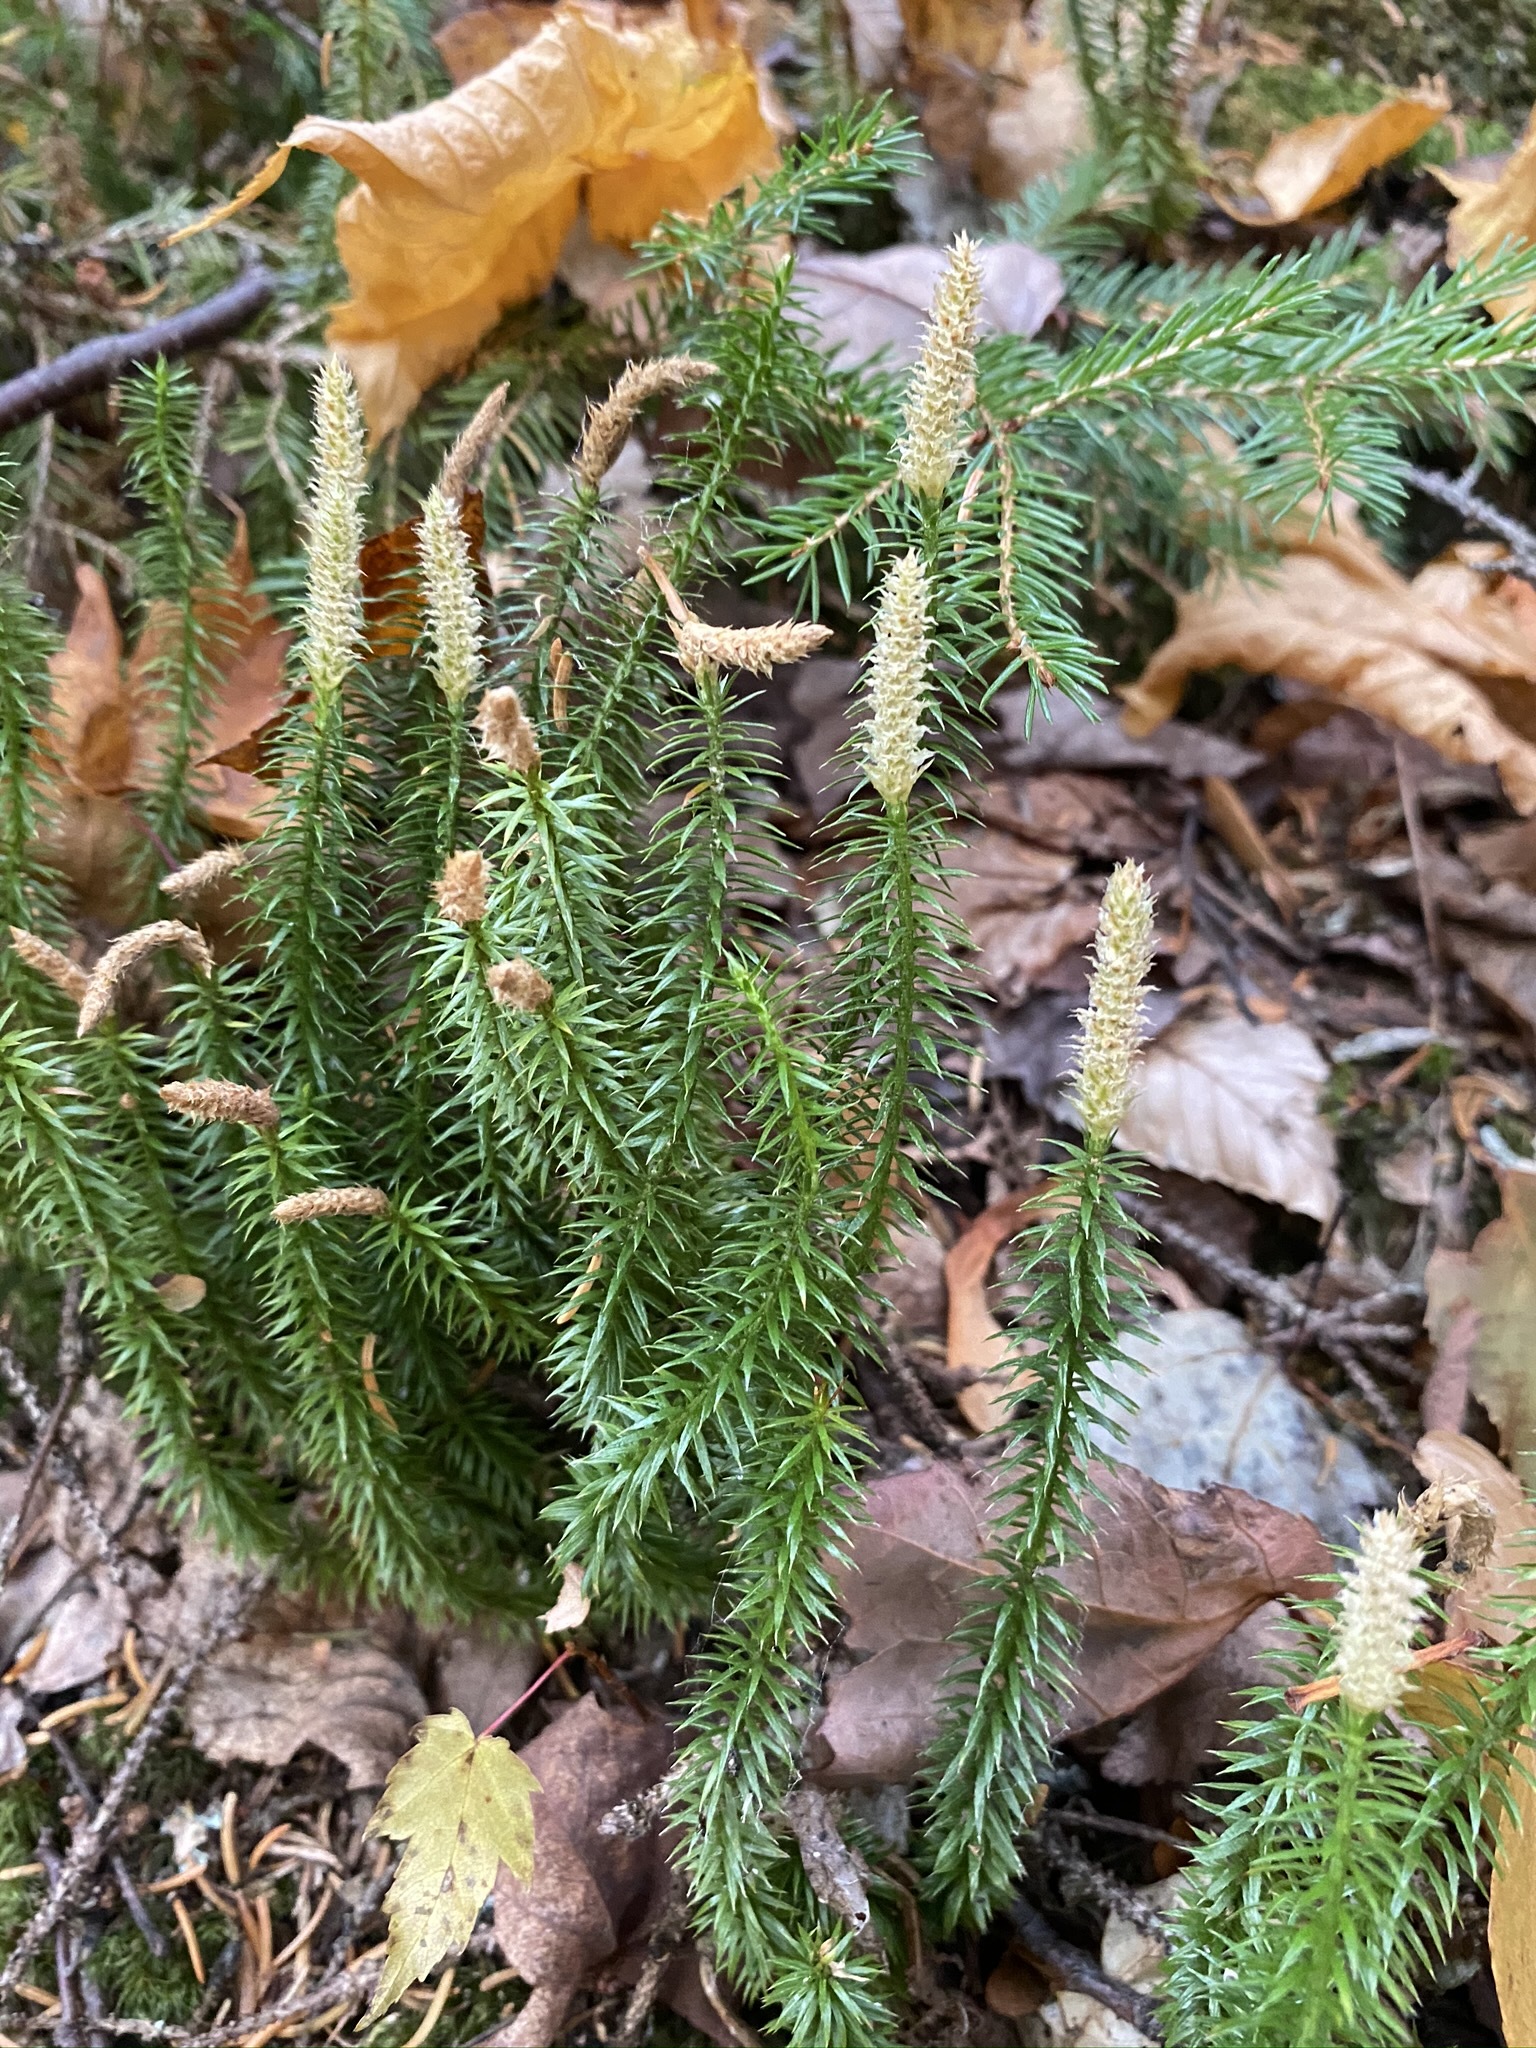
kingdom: Plantae
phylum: Tracheophyta
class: Lycopodiopsida
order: Lycopodiales
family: Lycopodiaceae
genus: Spinulum
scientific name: Spinulum annotinum
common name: Interrupted club-moss
